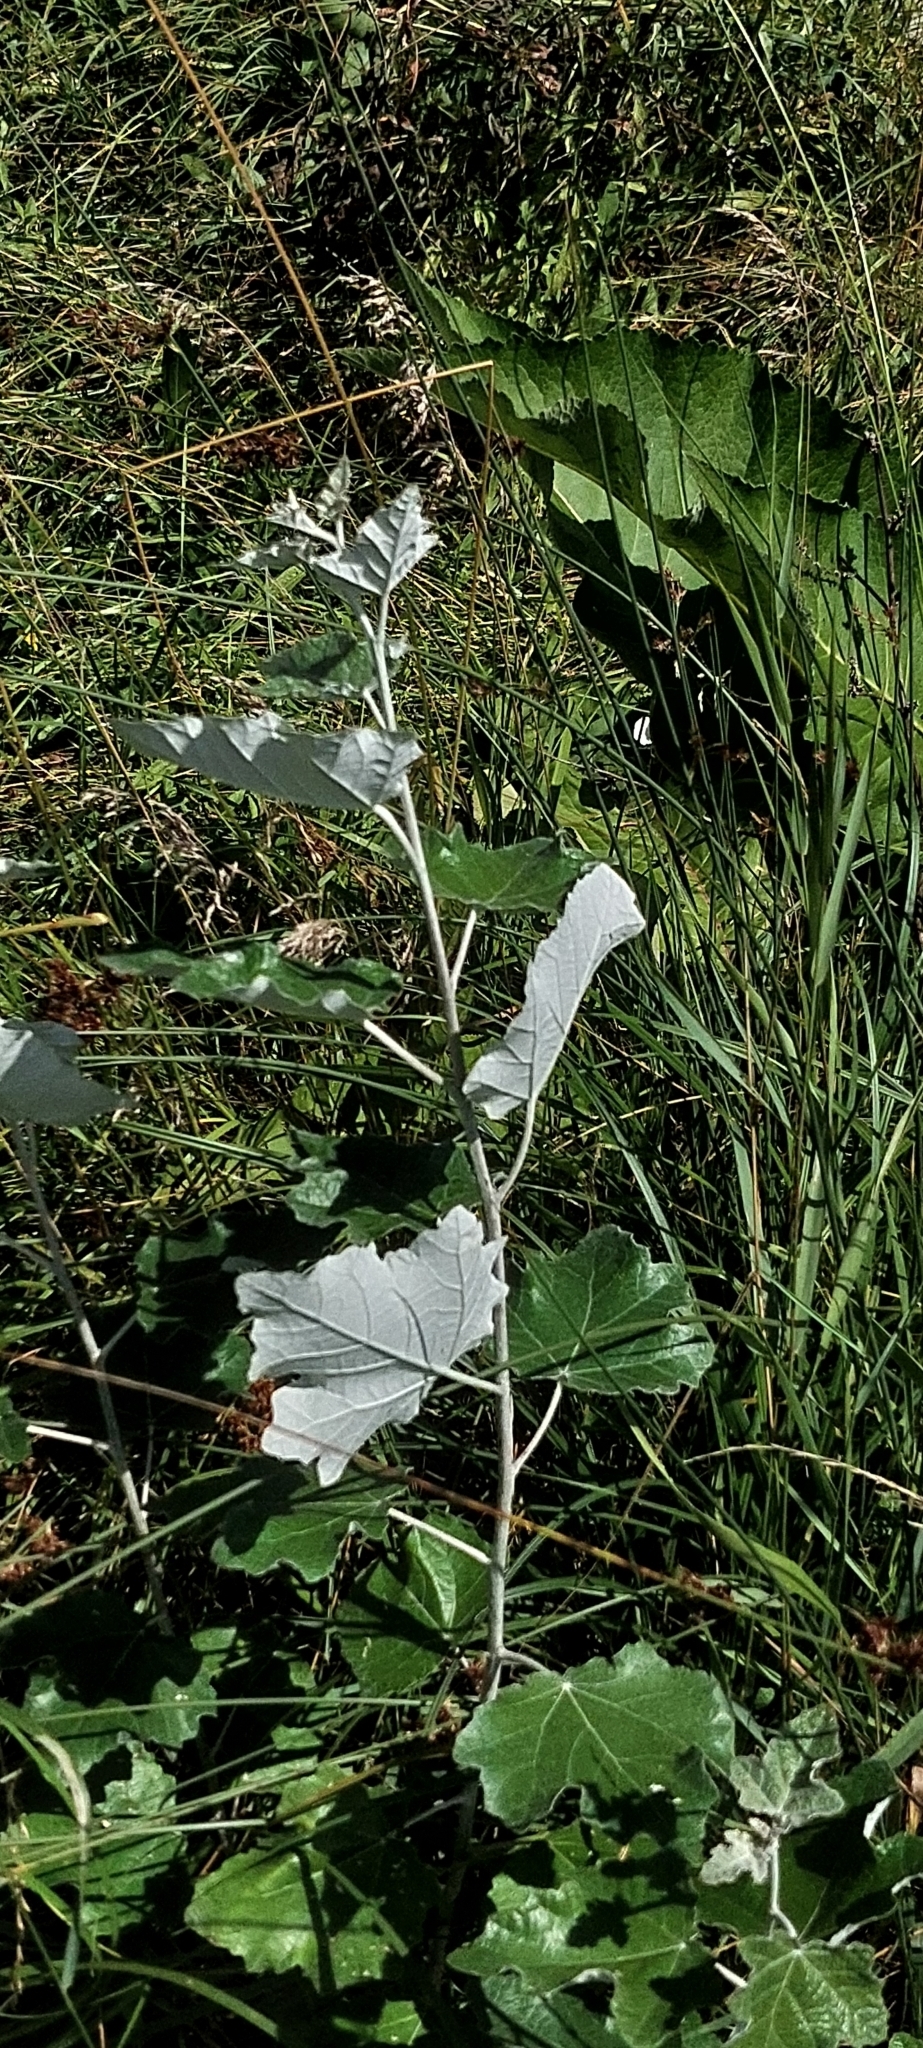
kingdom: Plantae
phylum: Tracheophyta
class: Magnoliopsida
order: Malpighiales
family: Salicaceae
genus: Populus
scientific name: Populus alba
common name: White poplar
